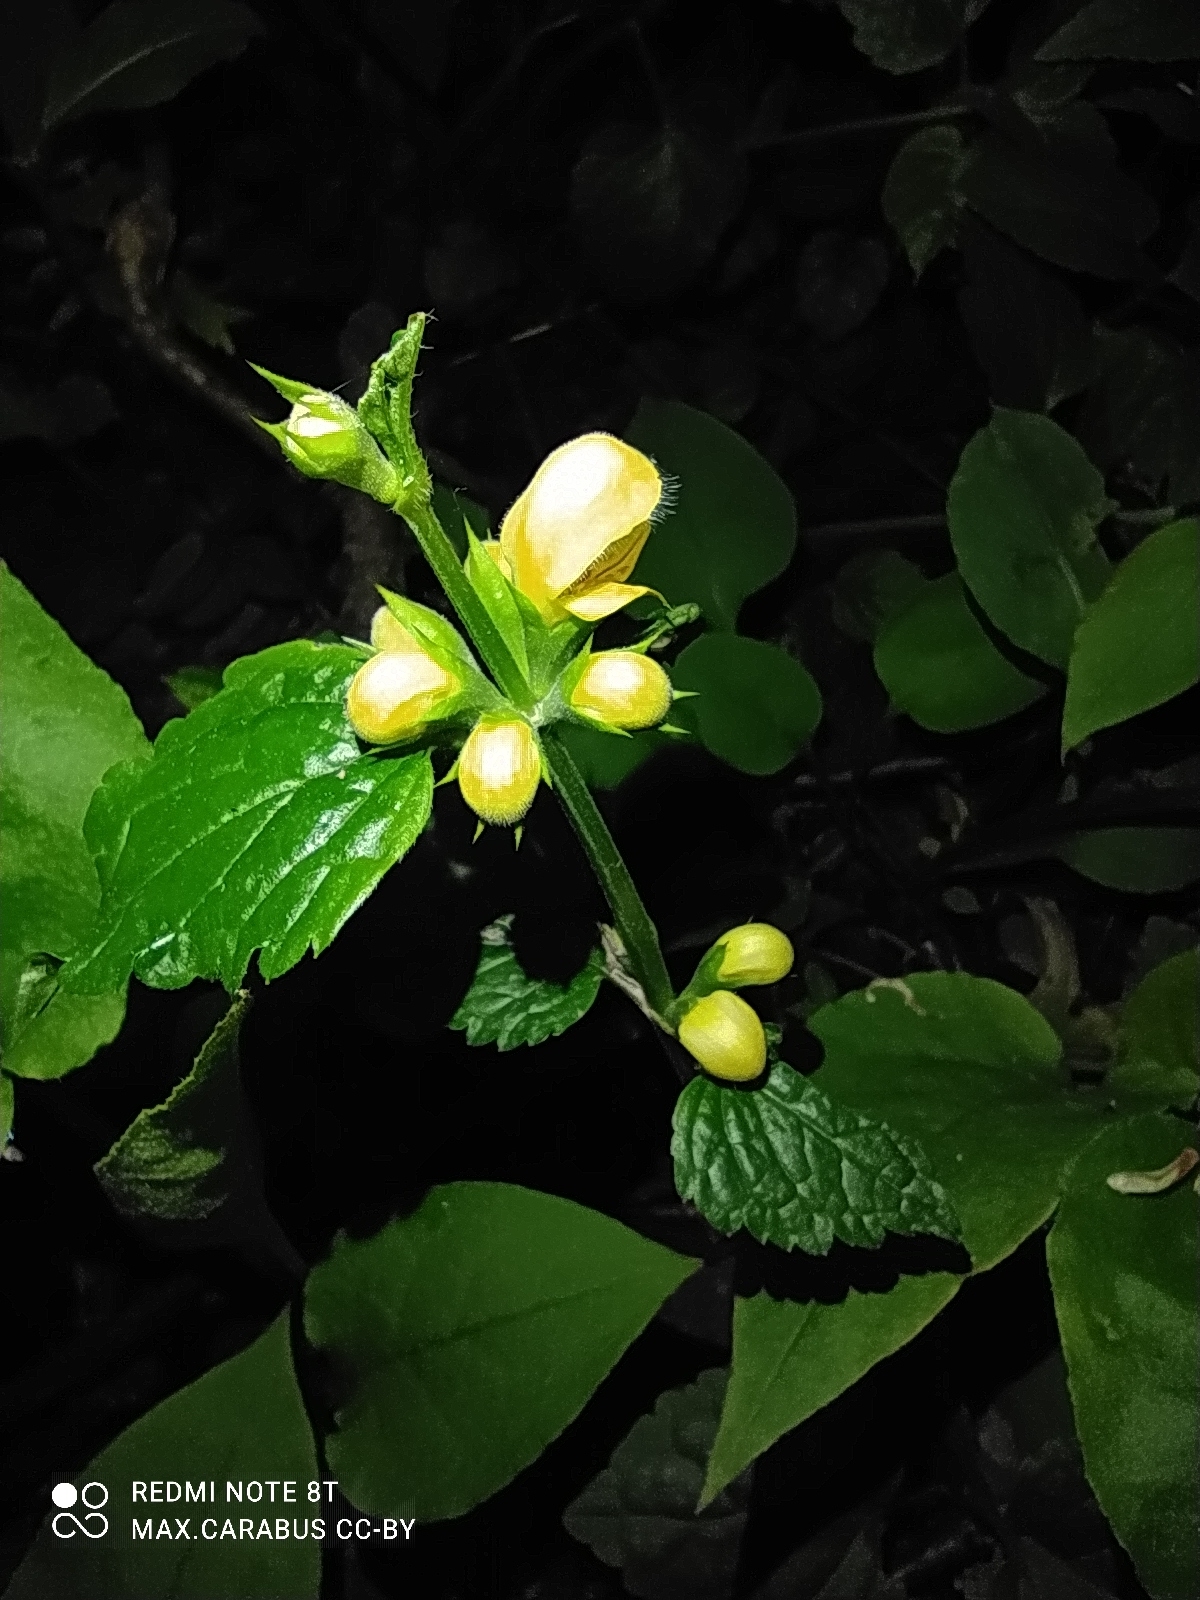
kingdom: Plantae
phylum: Tracheophyta
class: Magnoliopsida
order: Lamiales
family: Lamiaceae
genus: Lamium
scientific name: Lamium galeobdolon
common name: Yellow archangel
